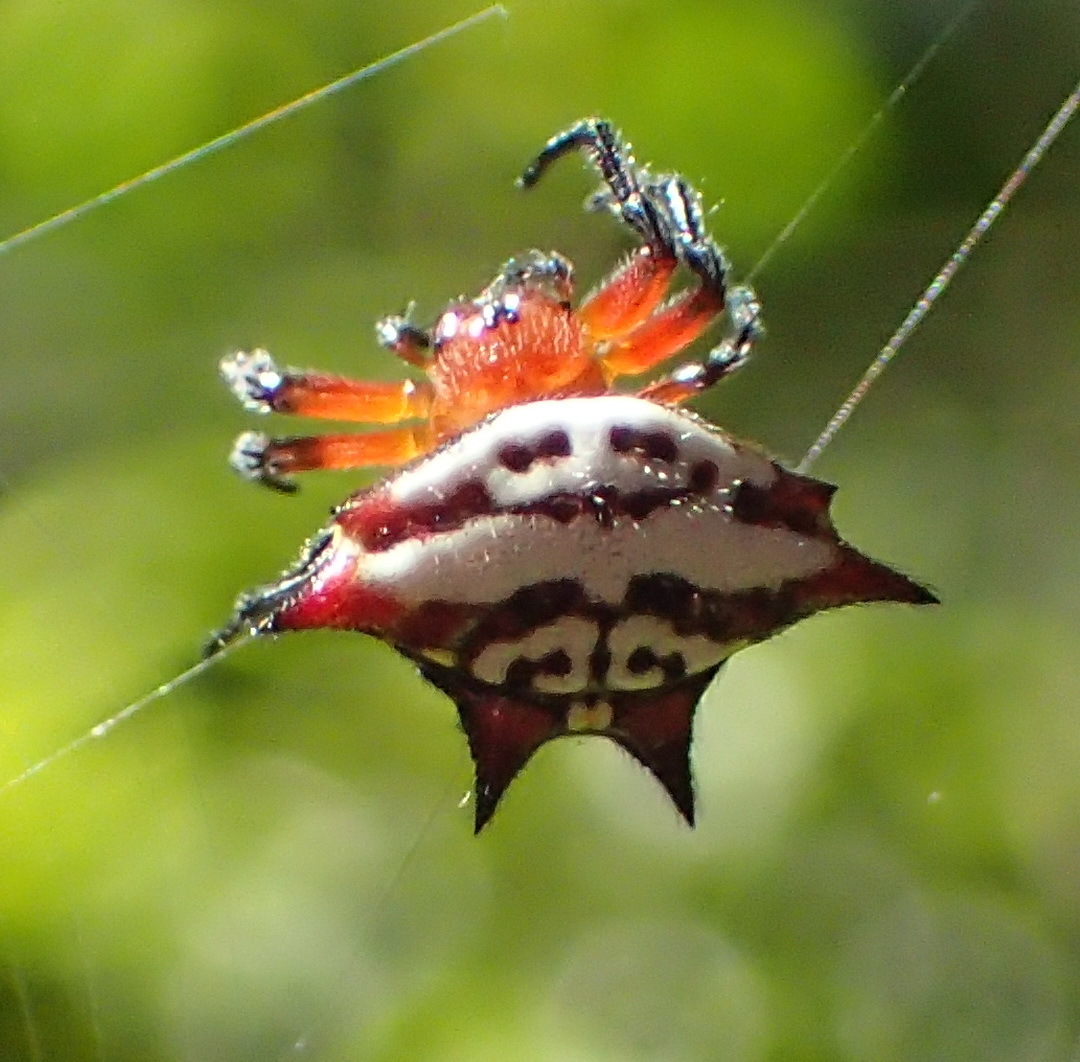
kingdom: Animalia
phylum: Arthropoda
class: Arachnida
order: Araneae
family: Araneidae
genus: Gasteracantha
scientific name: Gasteracantha sanguinolenta
